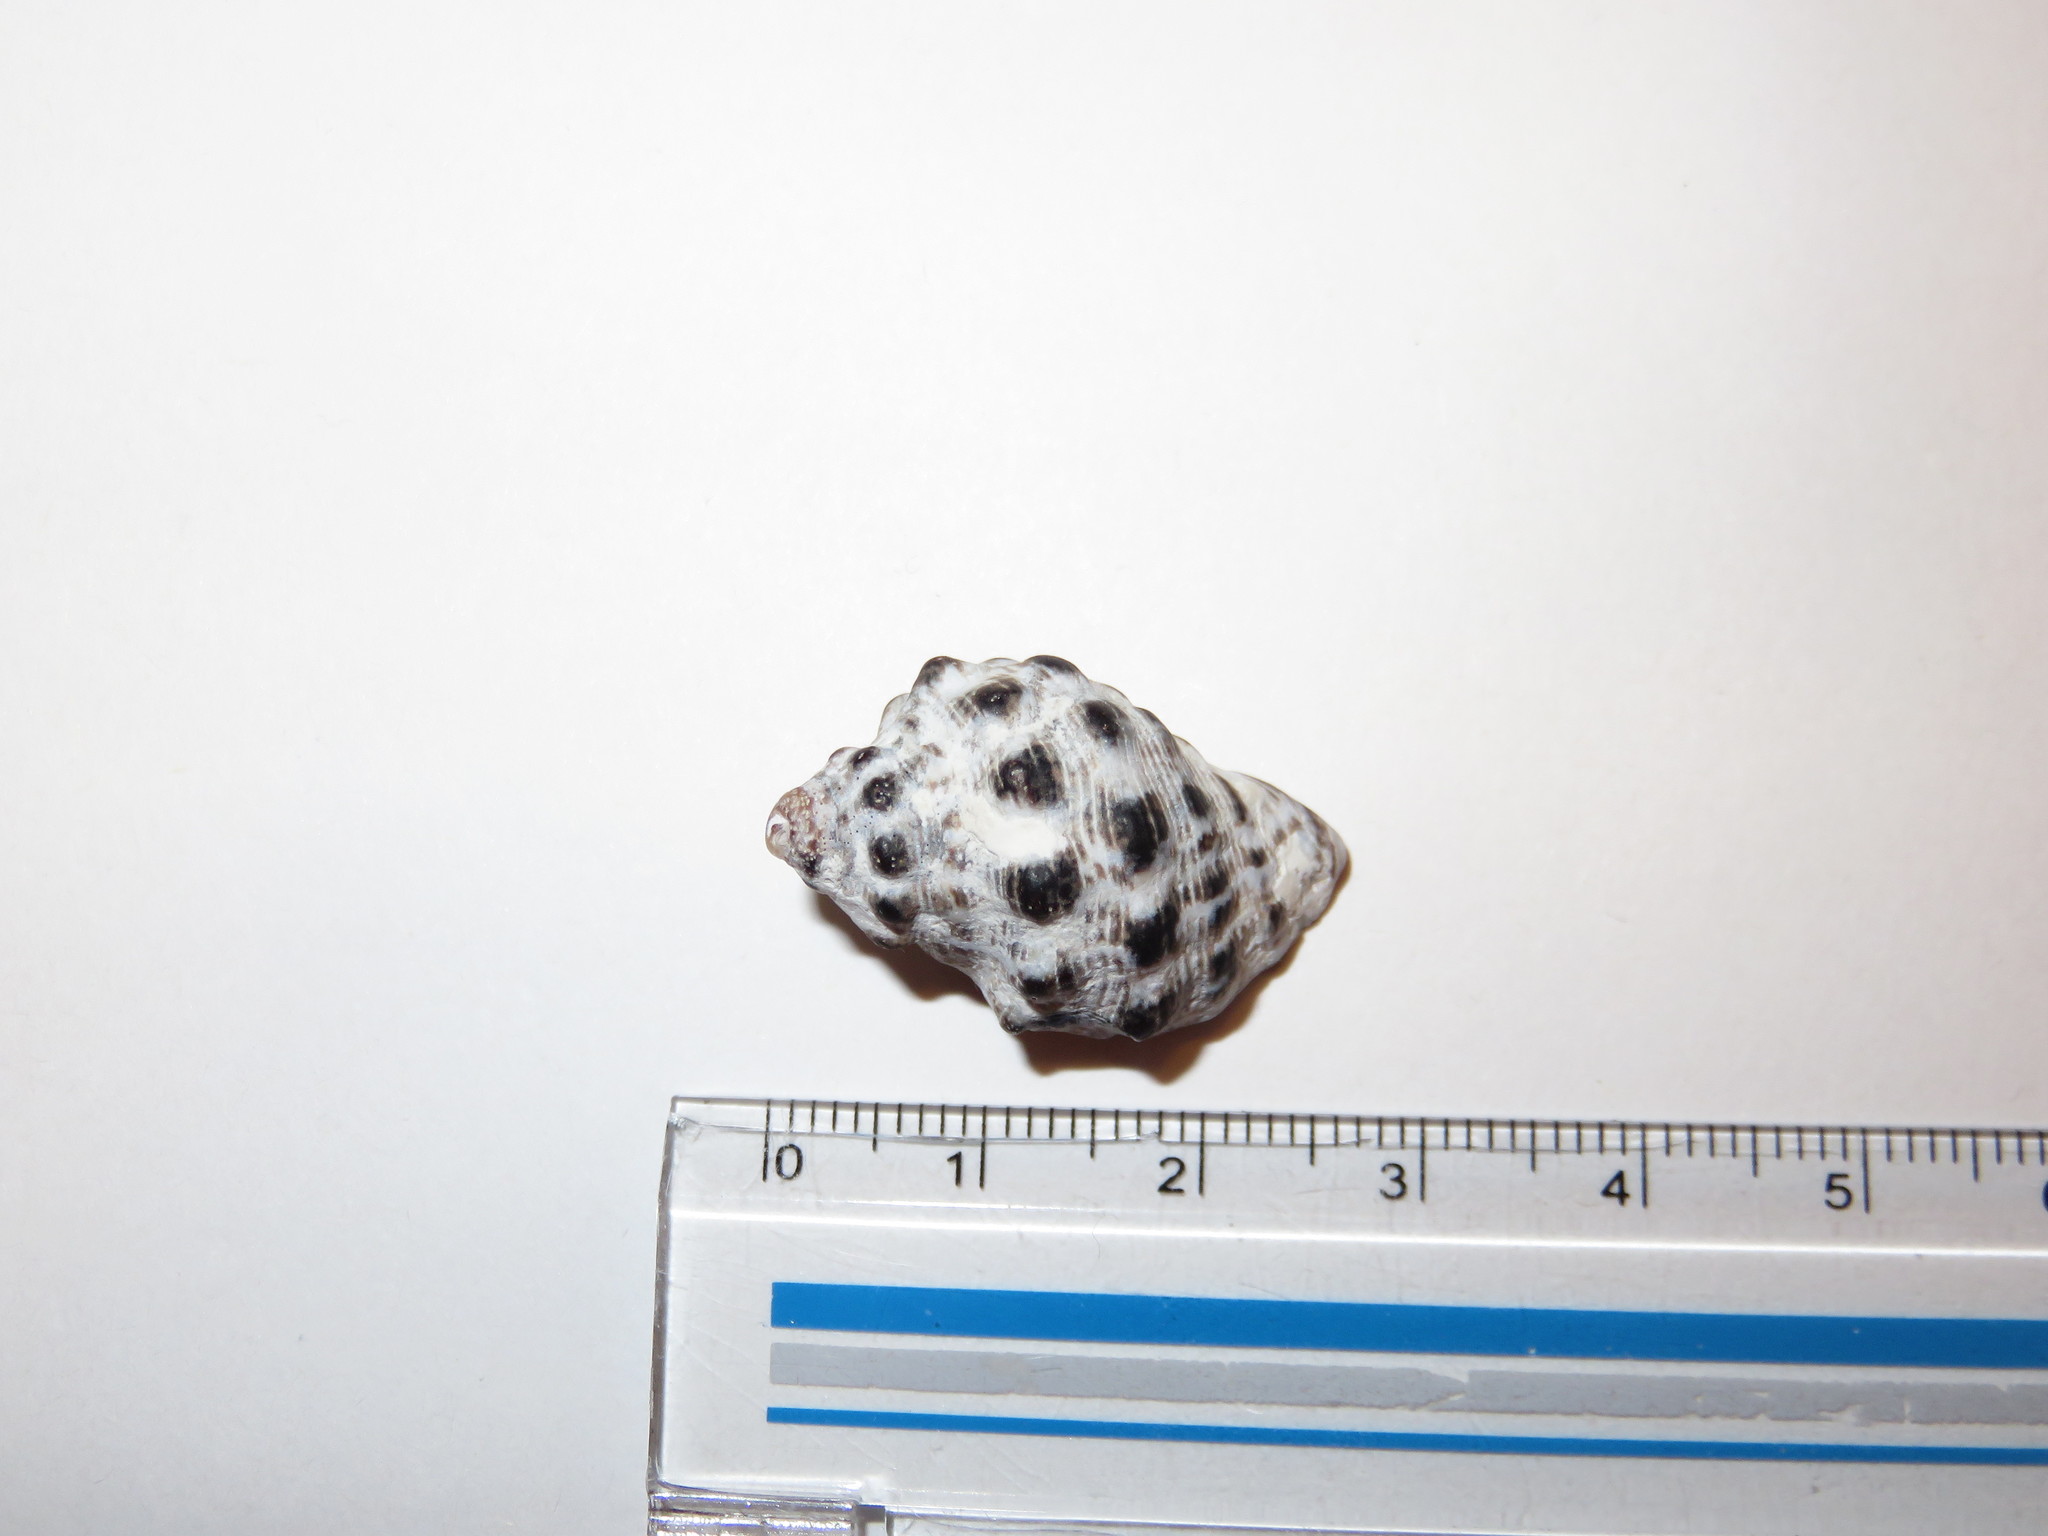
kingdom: Animalia
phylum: Mollusca
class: Gastropoda
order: Neogastropoda
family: Muricidae
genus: Reishia
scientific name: Reishia clavigera
